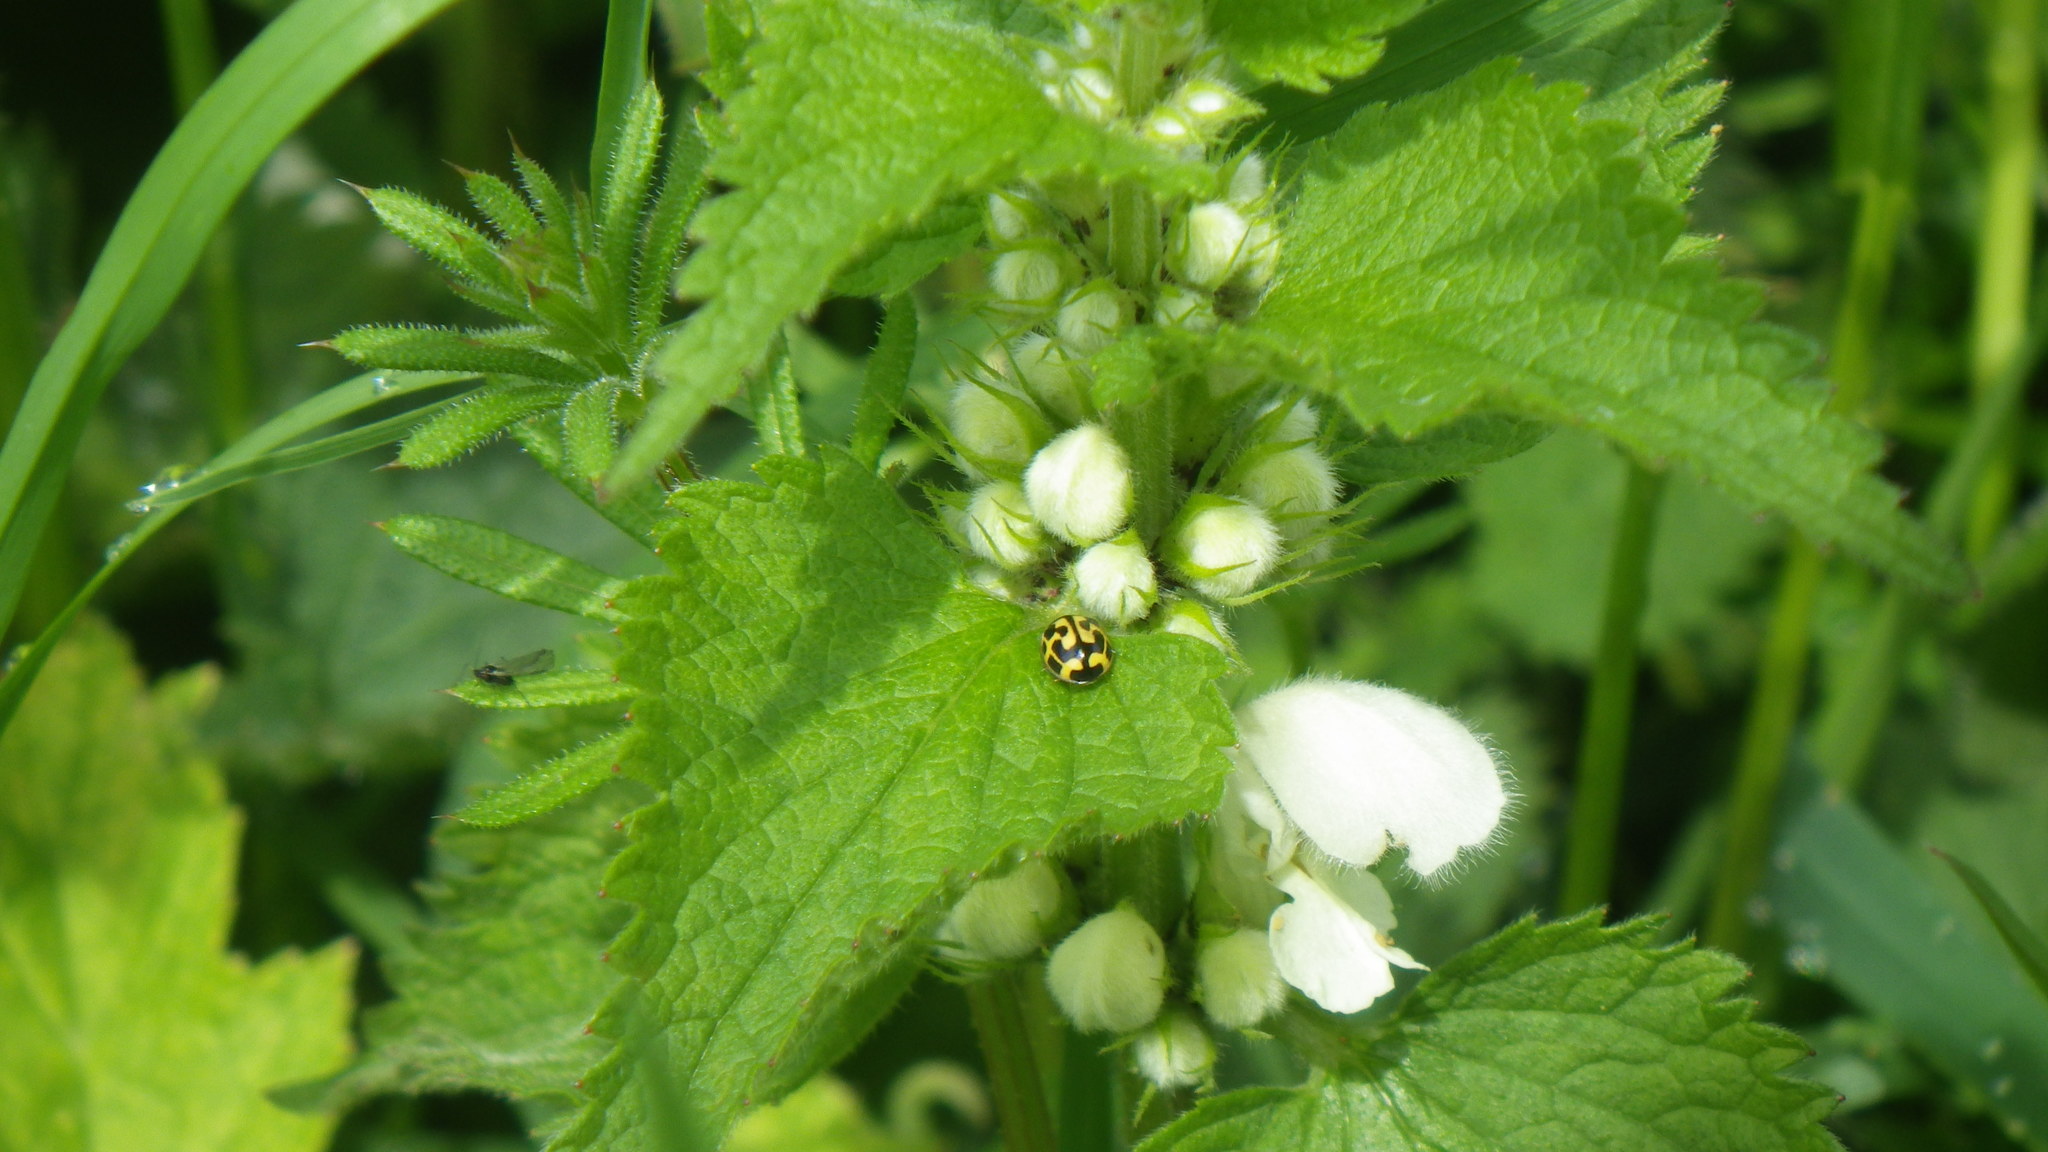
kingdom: Animalia
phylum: Arthropoda
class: Insecta
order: Coleoptera
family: Coccinellidae
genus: Propylaea
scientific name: Propylaea quatuordecimpunctata
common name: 14-spotted ladybird beetle
